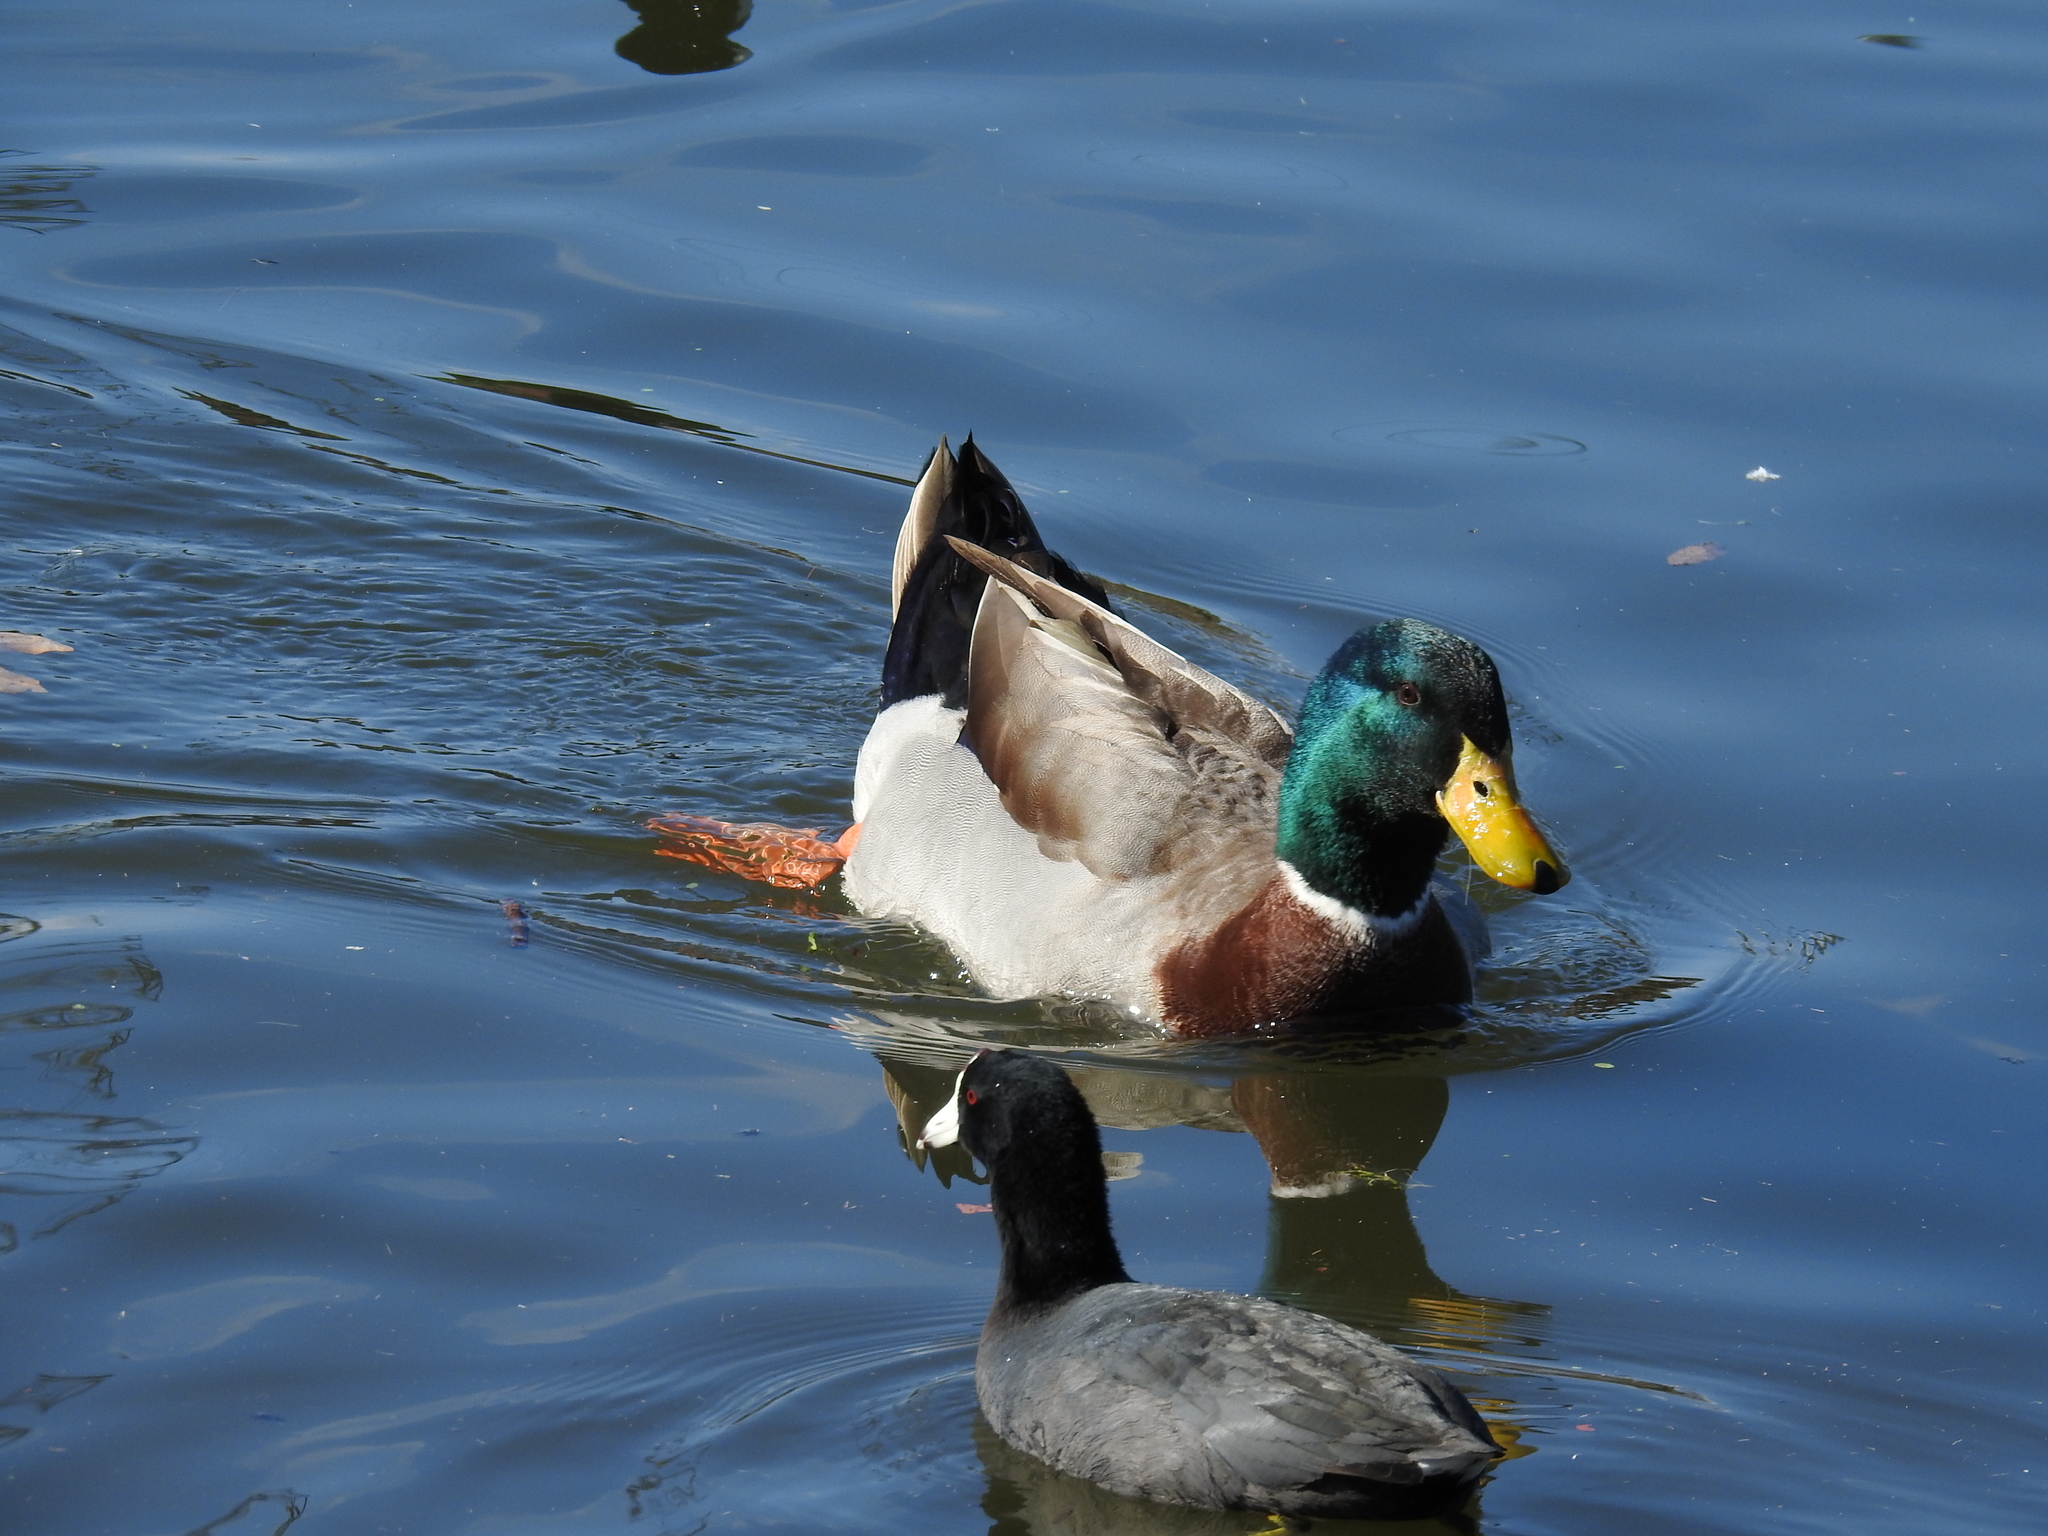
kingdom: Animalia
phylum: Chordata
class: Aves
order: Anseriformes
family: Anatidae
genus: Anas
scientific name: Anas platyrhynchos
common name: Mallard
